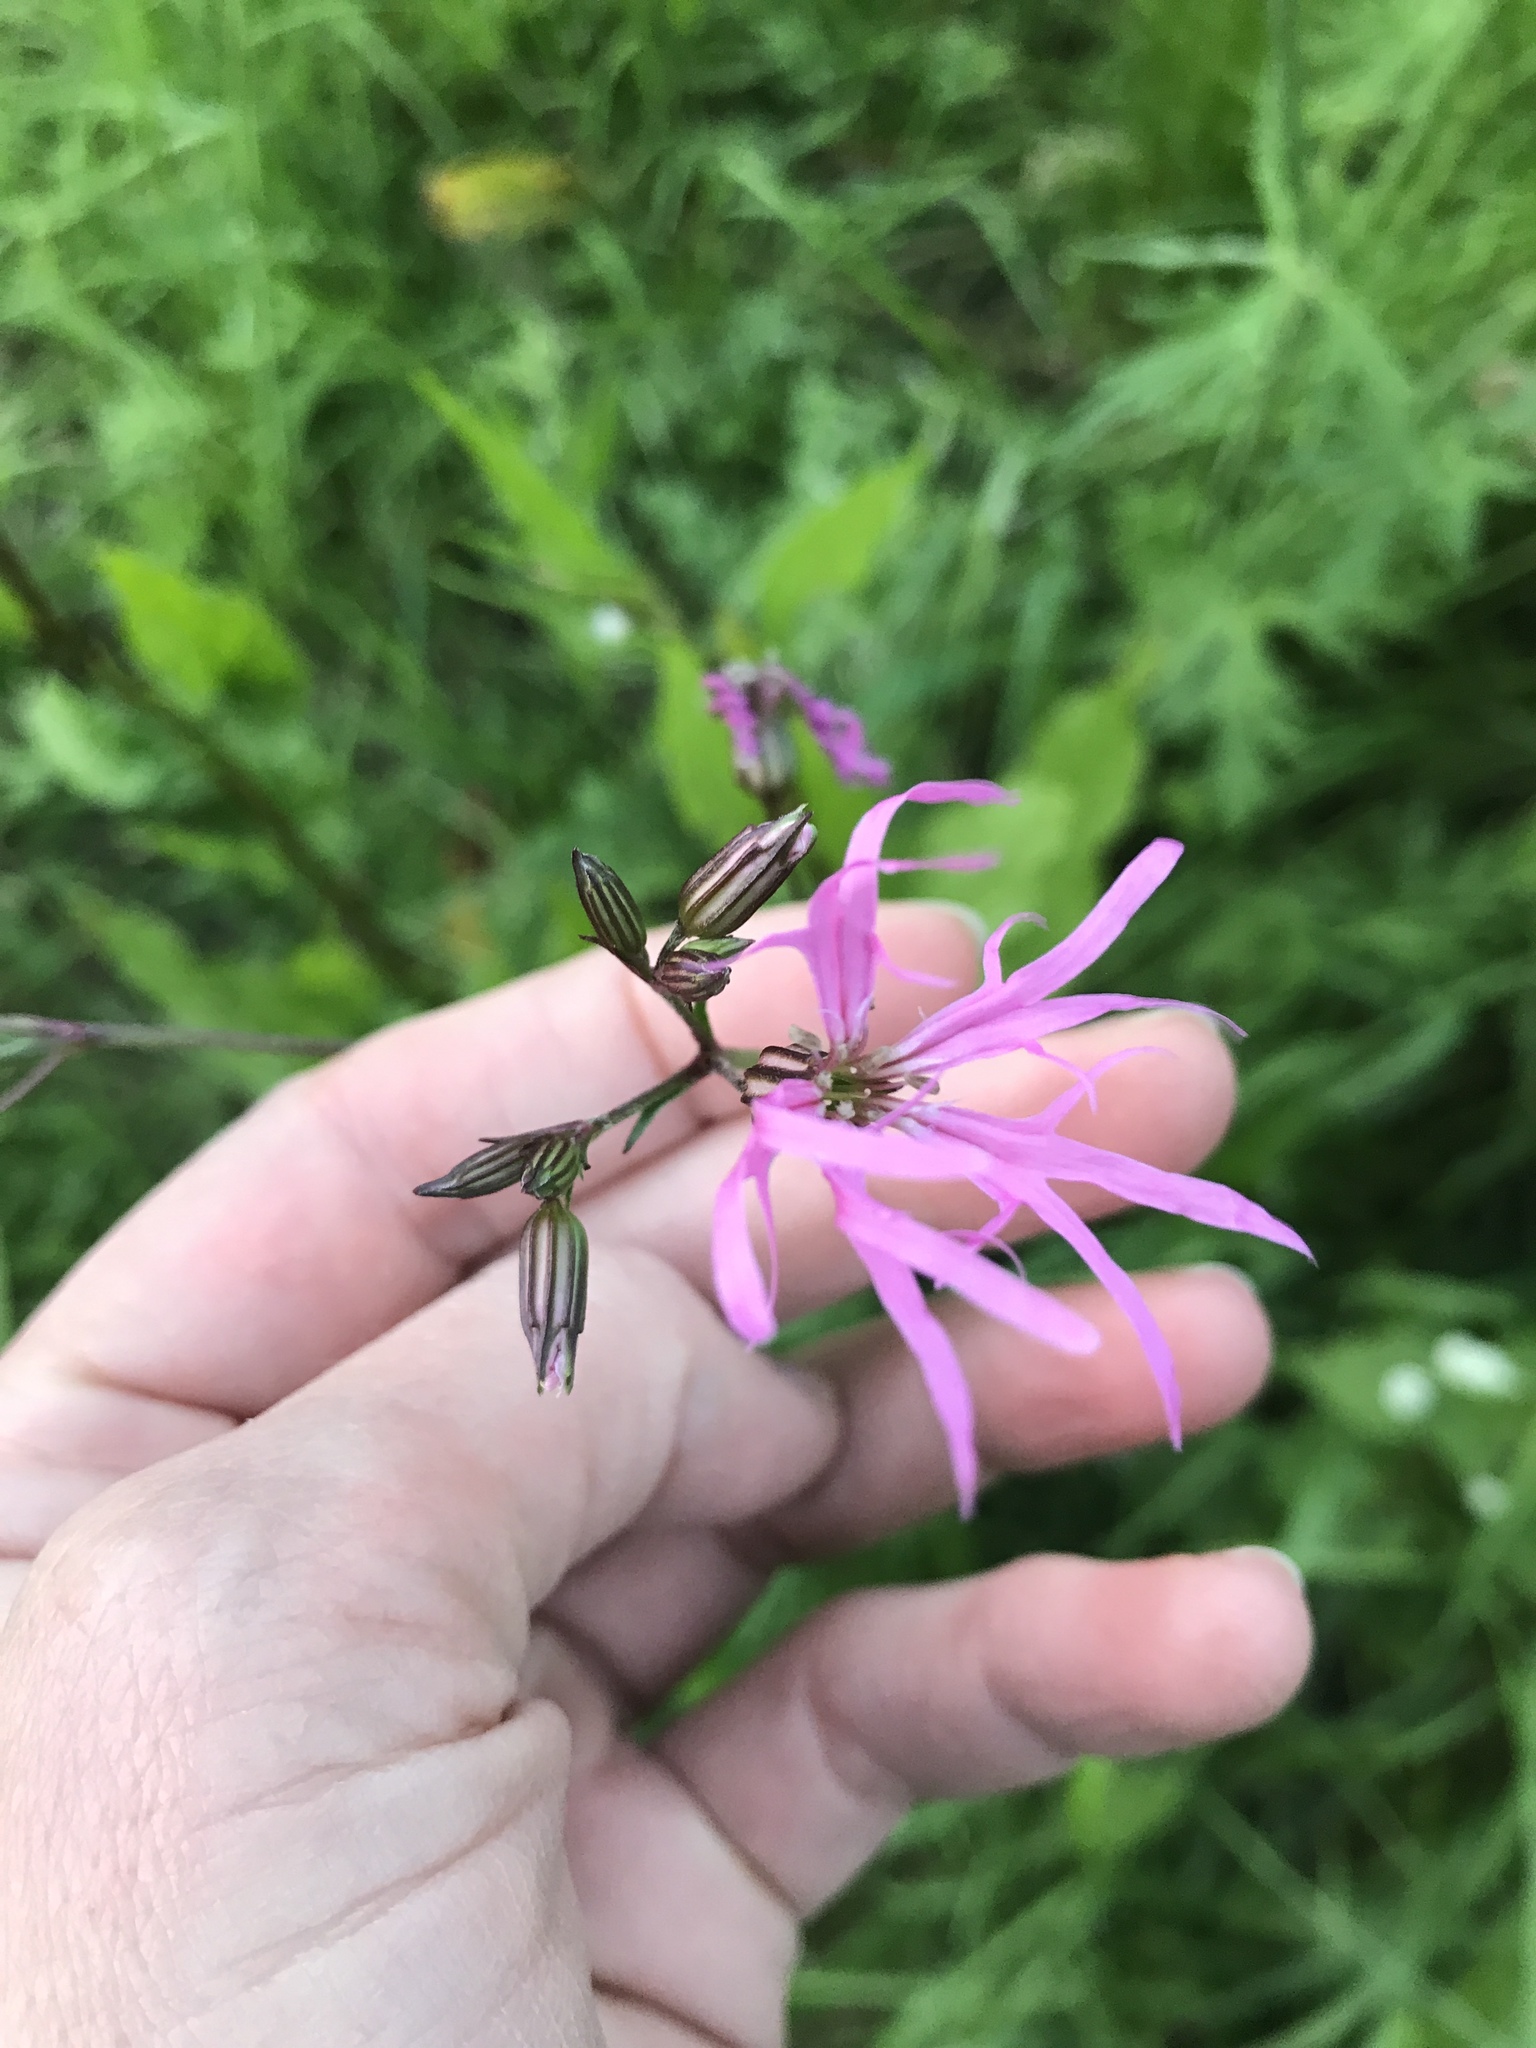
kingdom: Plantae
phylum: Tracheophyta
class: Magnoliopsida
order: Caryophyllales
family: Caryophyllaceae
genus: Silene
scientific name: Silene flos-cuculi
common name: Ragged-robin
